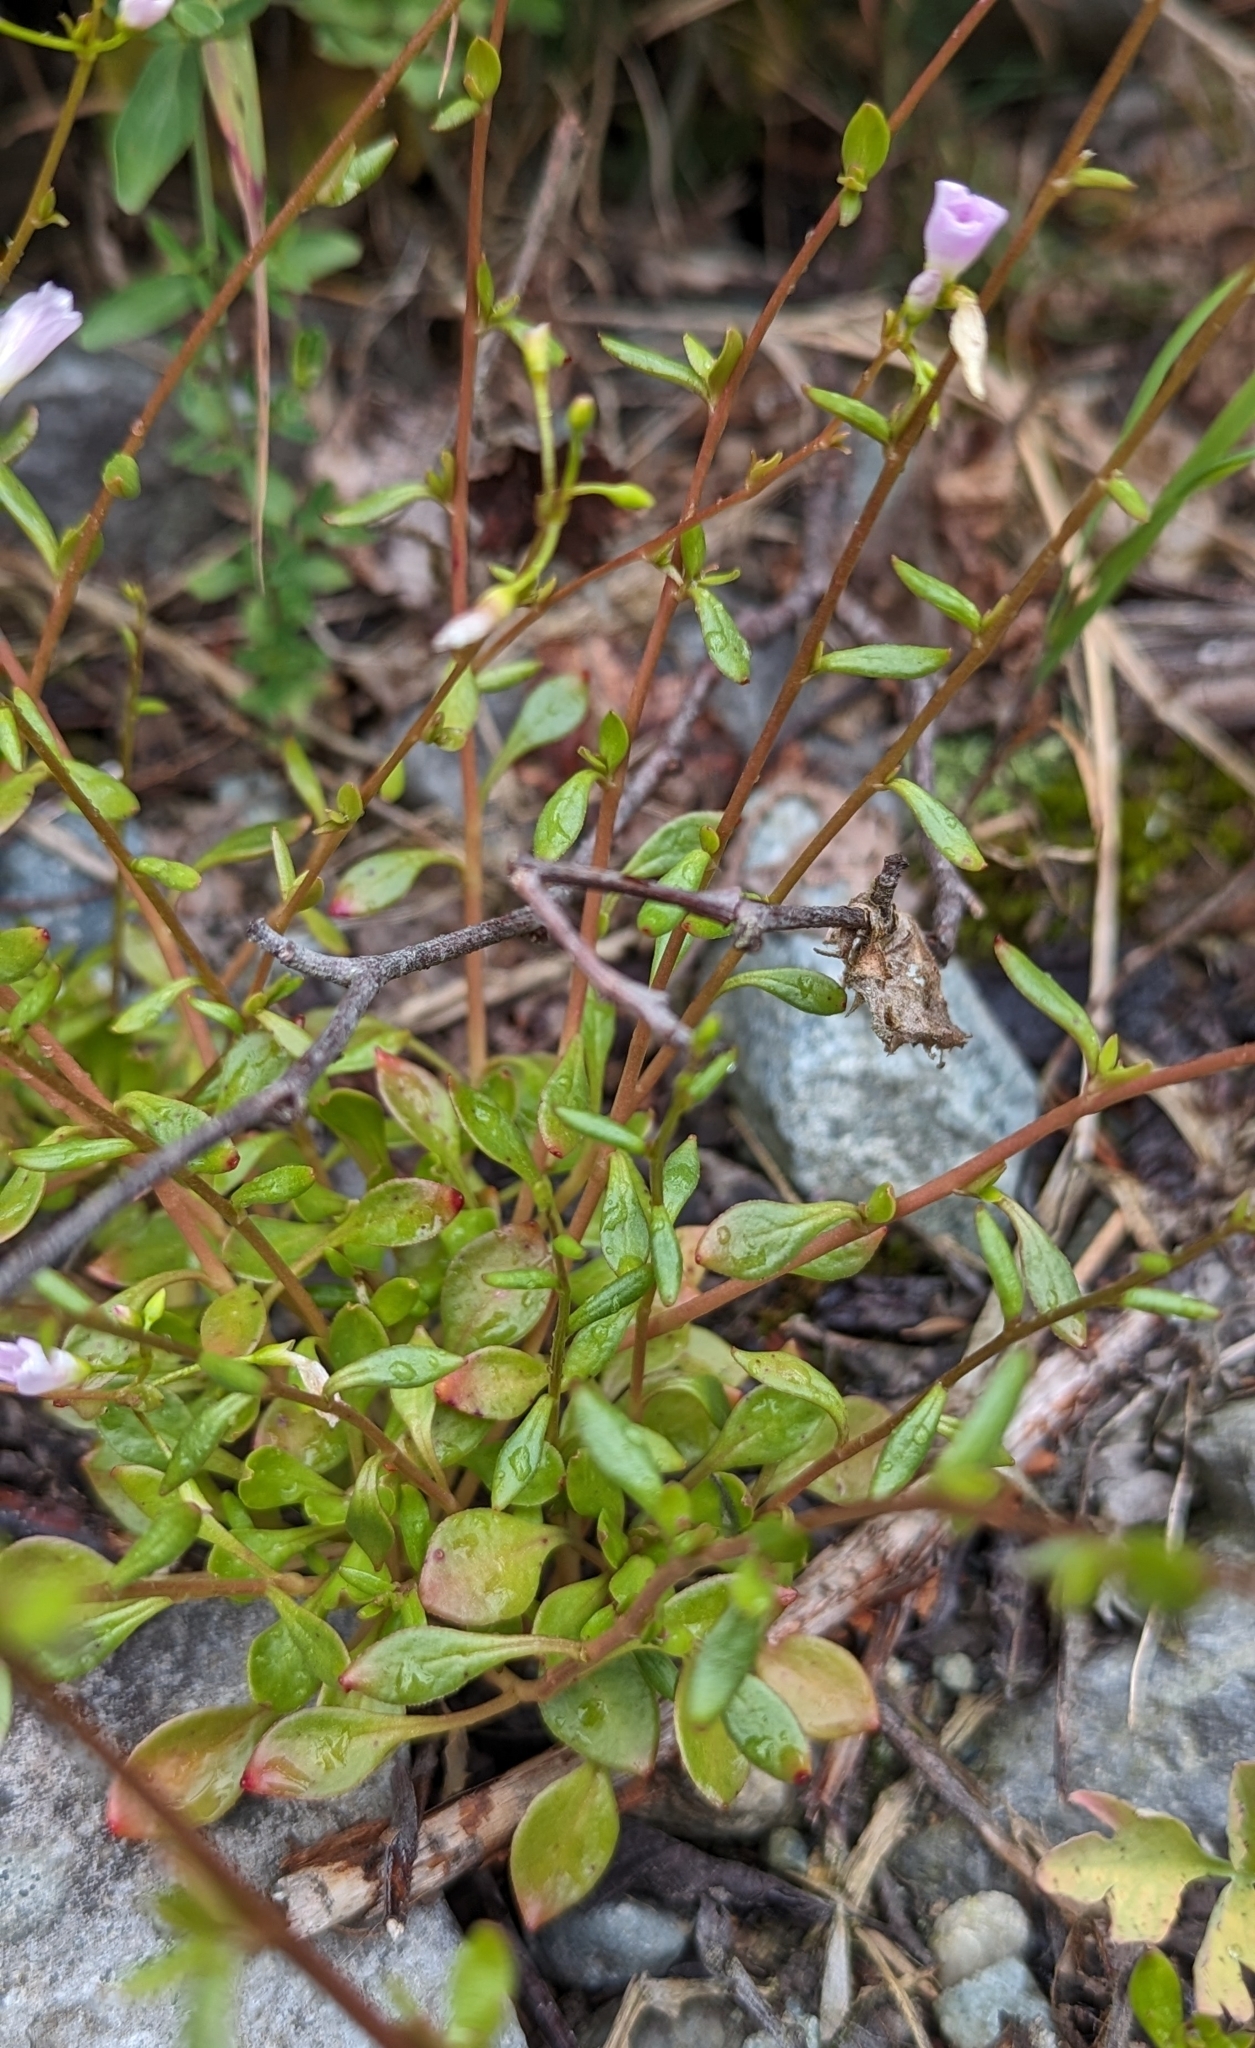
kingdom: Plantae
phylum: Tracheophyta
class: Magnoliopsida
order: Caryophyllales
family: Montiaceae
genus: Montia
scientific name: Montia parvifolia
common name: Small-leaved blinks
